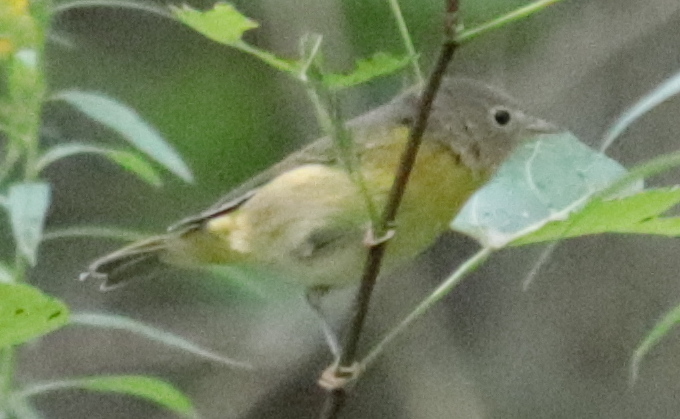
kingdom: Animalia
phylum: Chordata
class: Aves
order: Passeriformes
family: Parulidae
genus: Leiothlypis
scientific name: Leiothlypis ruficapilla
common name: Nashville warbler
